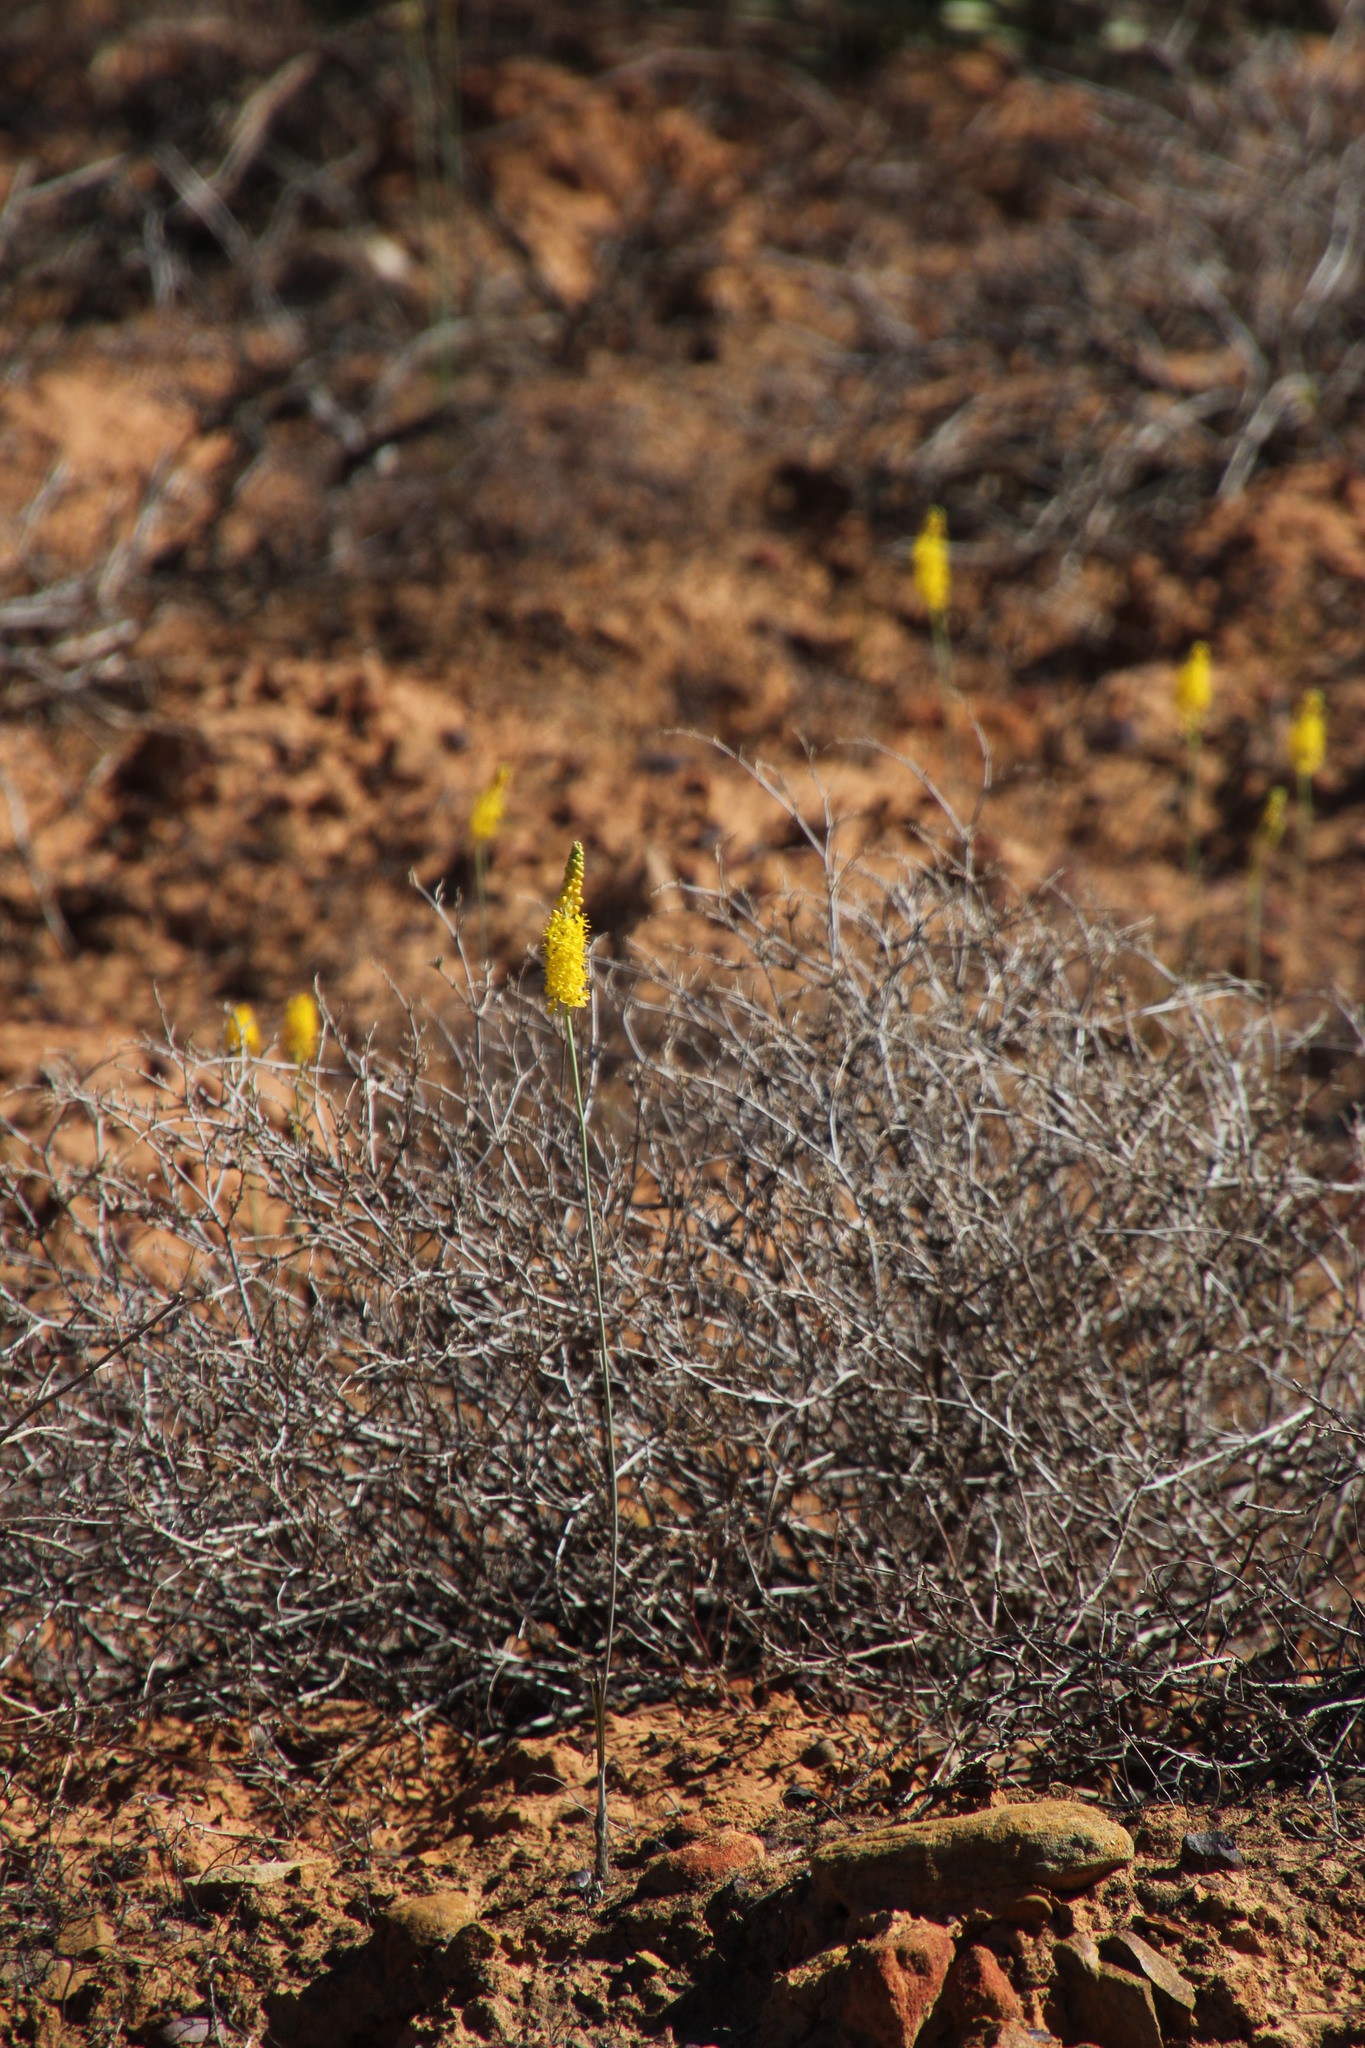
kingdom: Plantae
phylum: Tracheophyta
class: Liliopsida
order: Asparagales
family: Asphodelaceae
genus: Bulbinella
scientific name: Bulbinella divaginata
